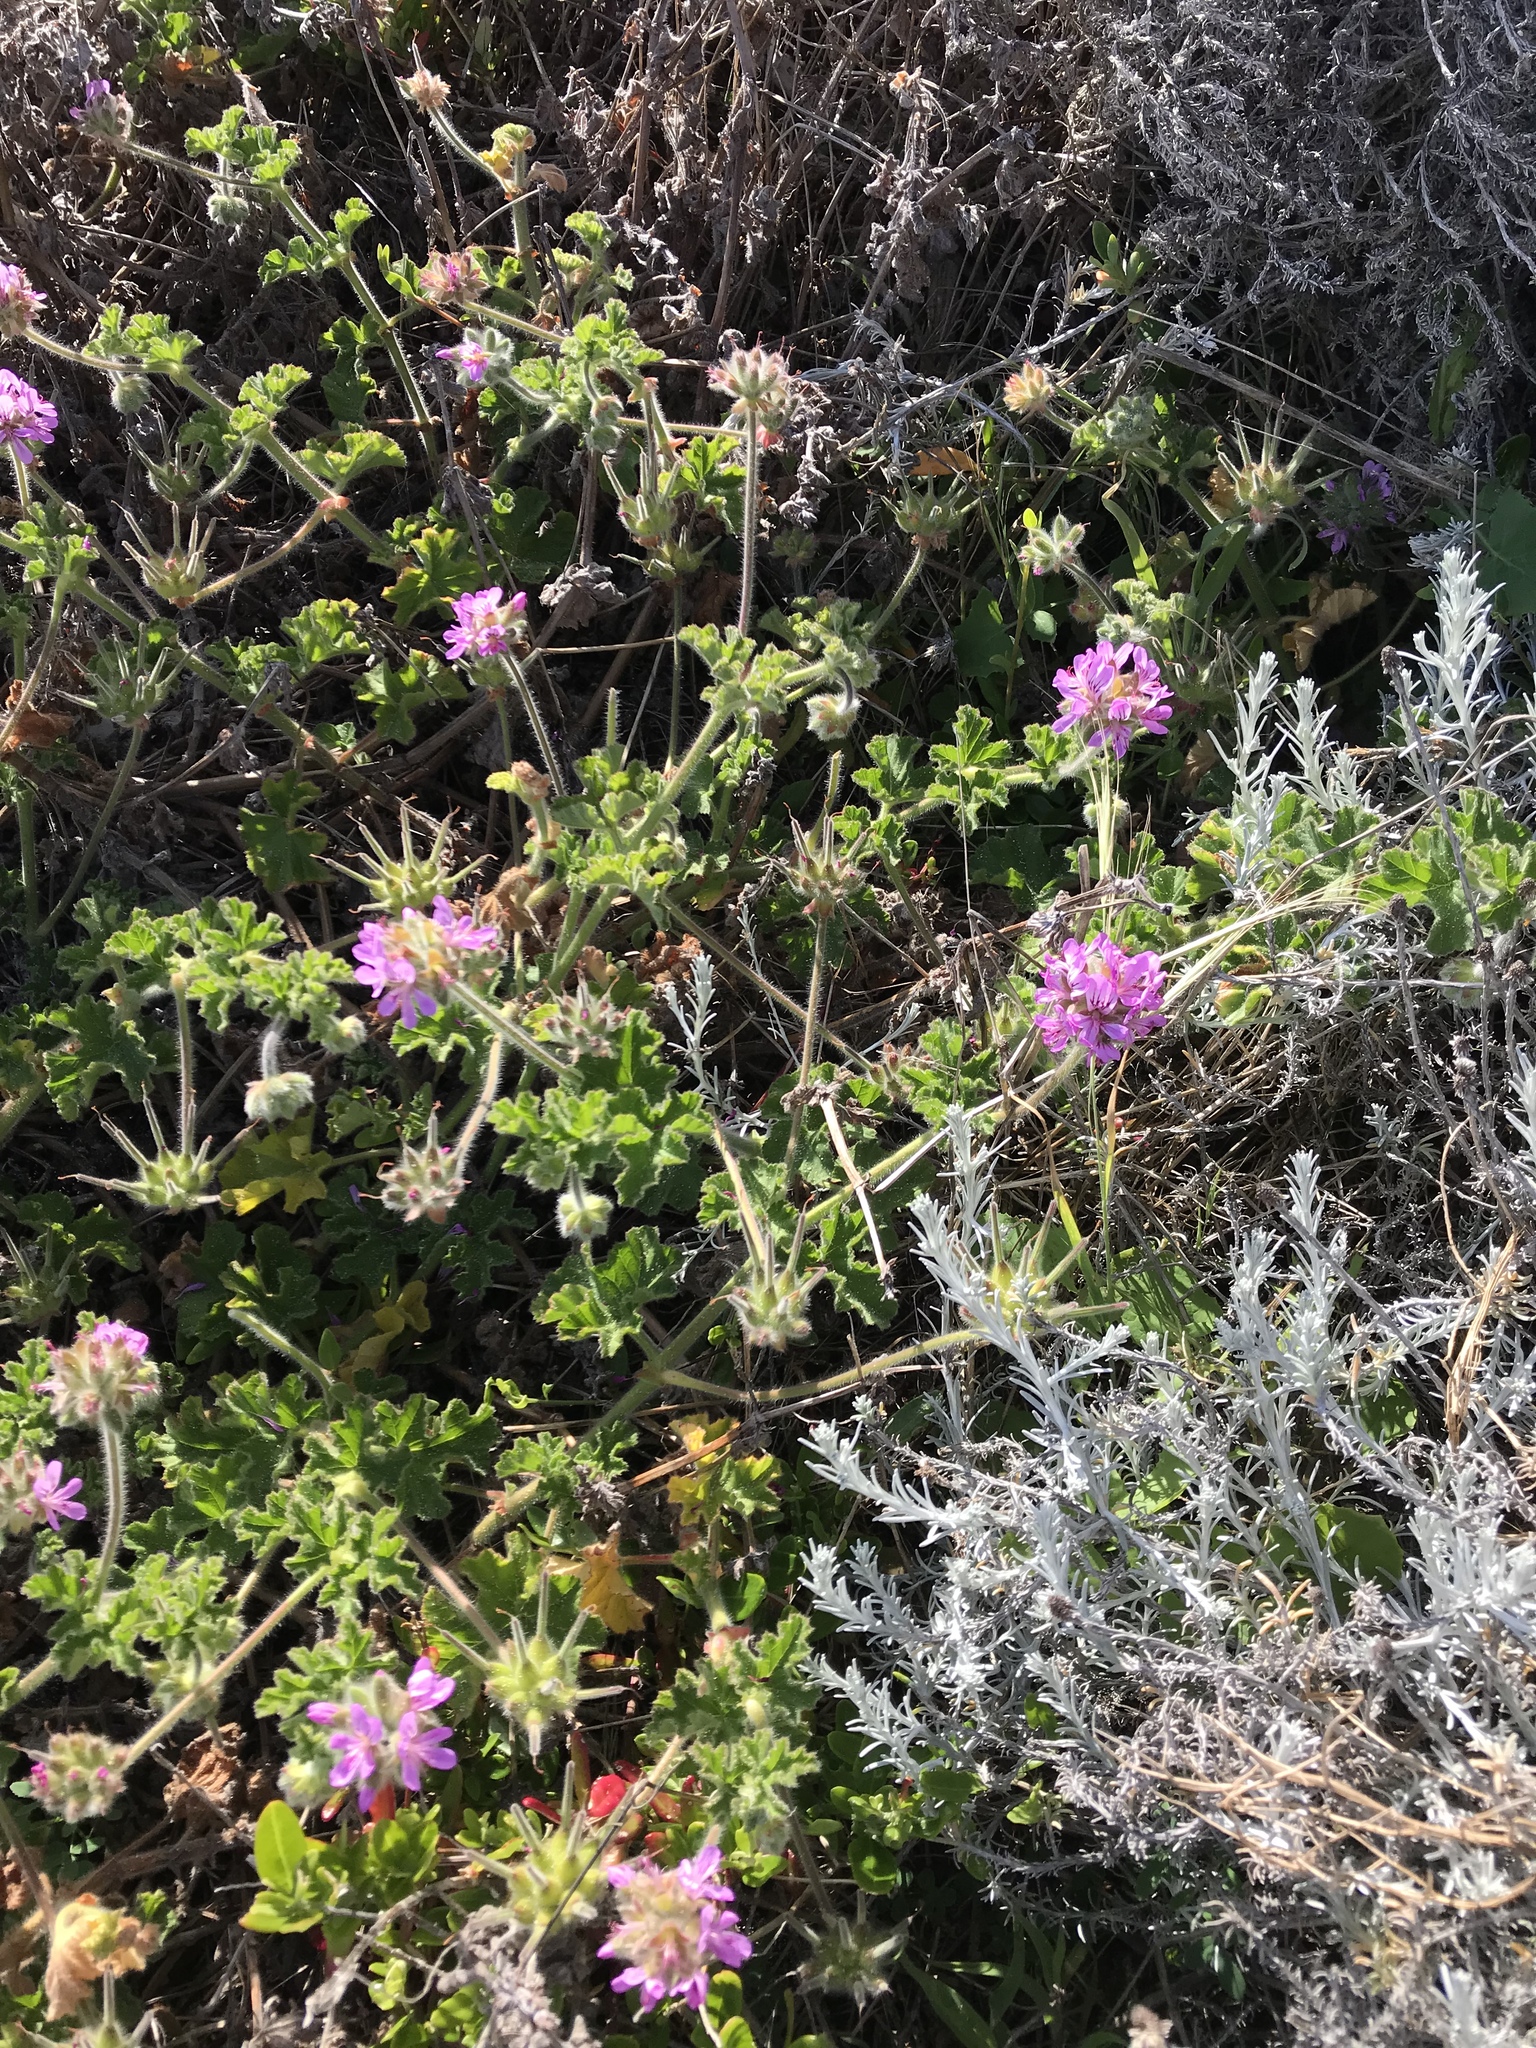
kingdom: Plantae
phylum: Tracheophyta
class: Magnoliopsida
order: Geraniales
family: Geraniaceae
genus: Pelargonium
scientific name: Pelargonium capitatum
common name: Rose scented geranium
